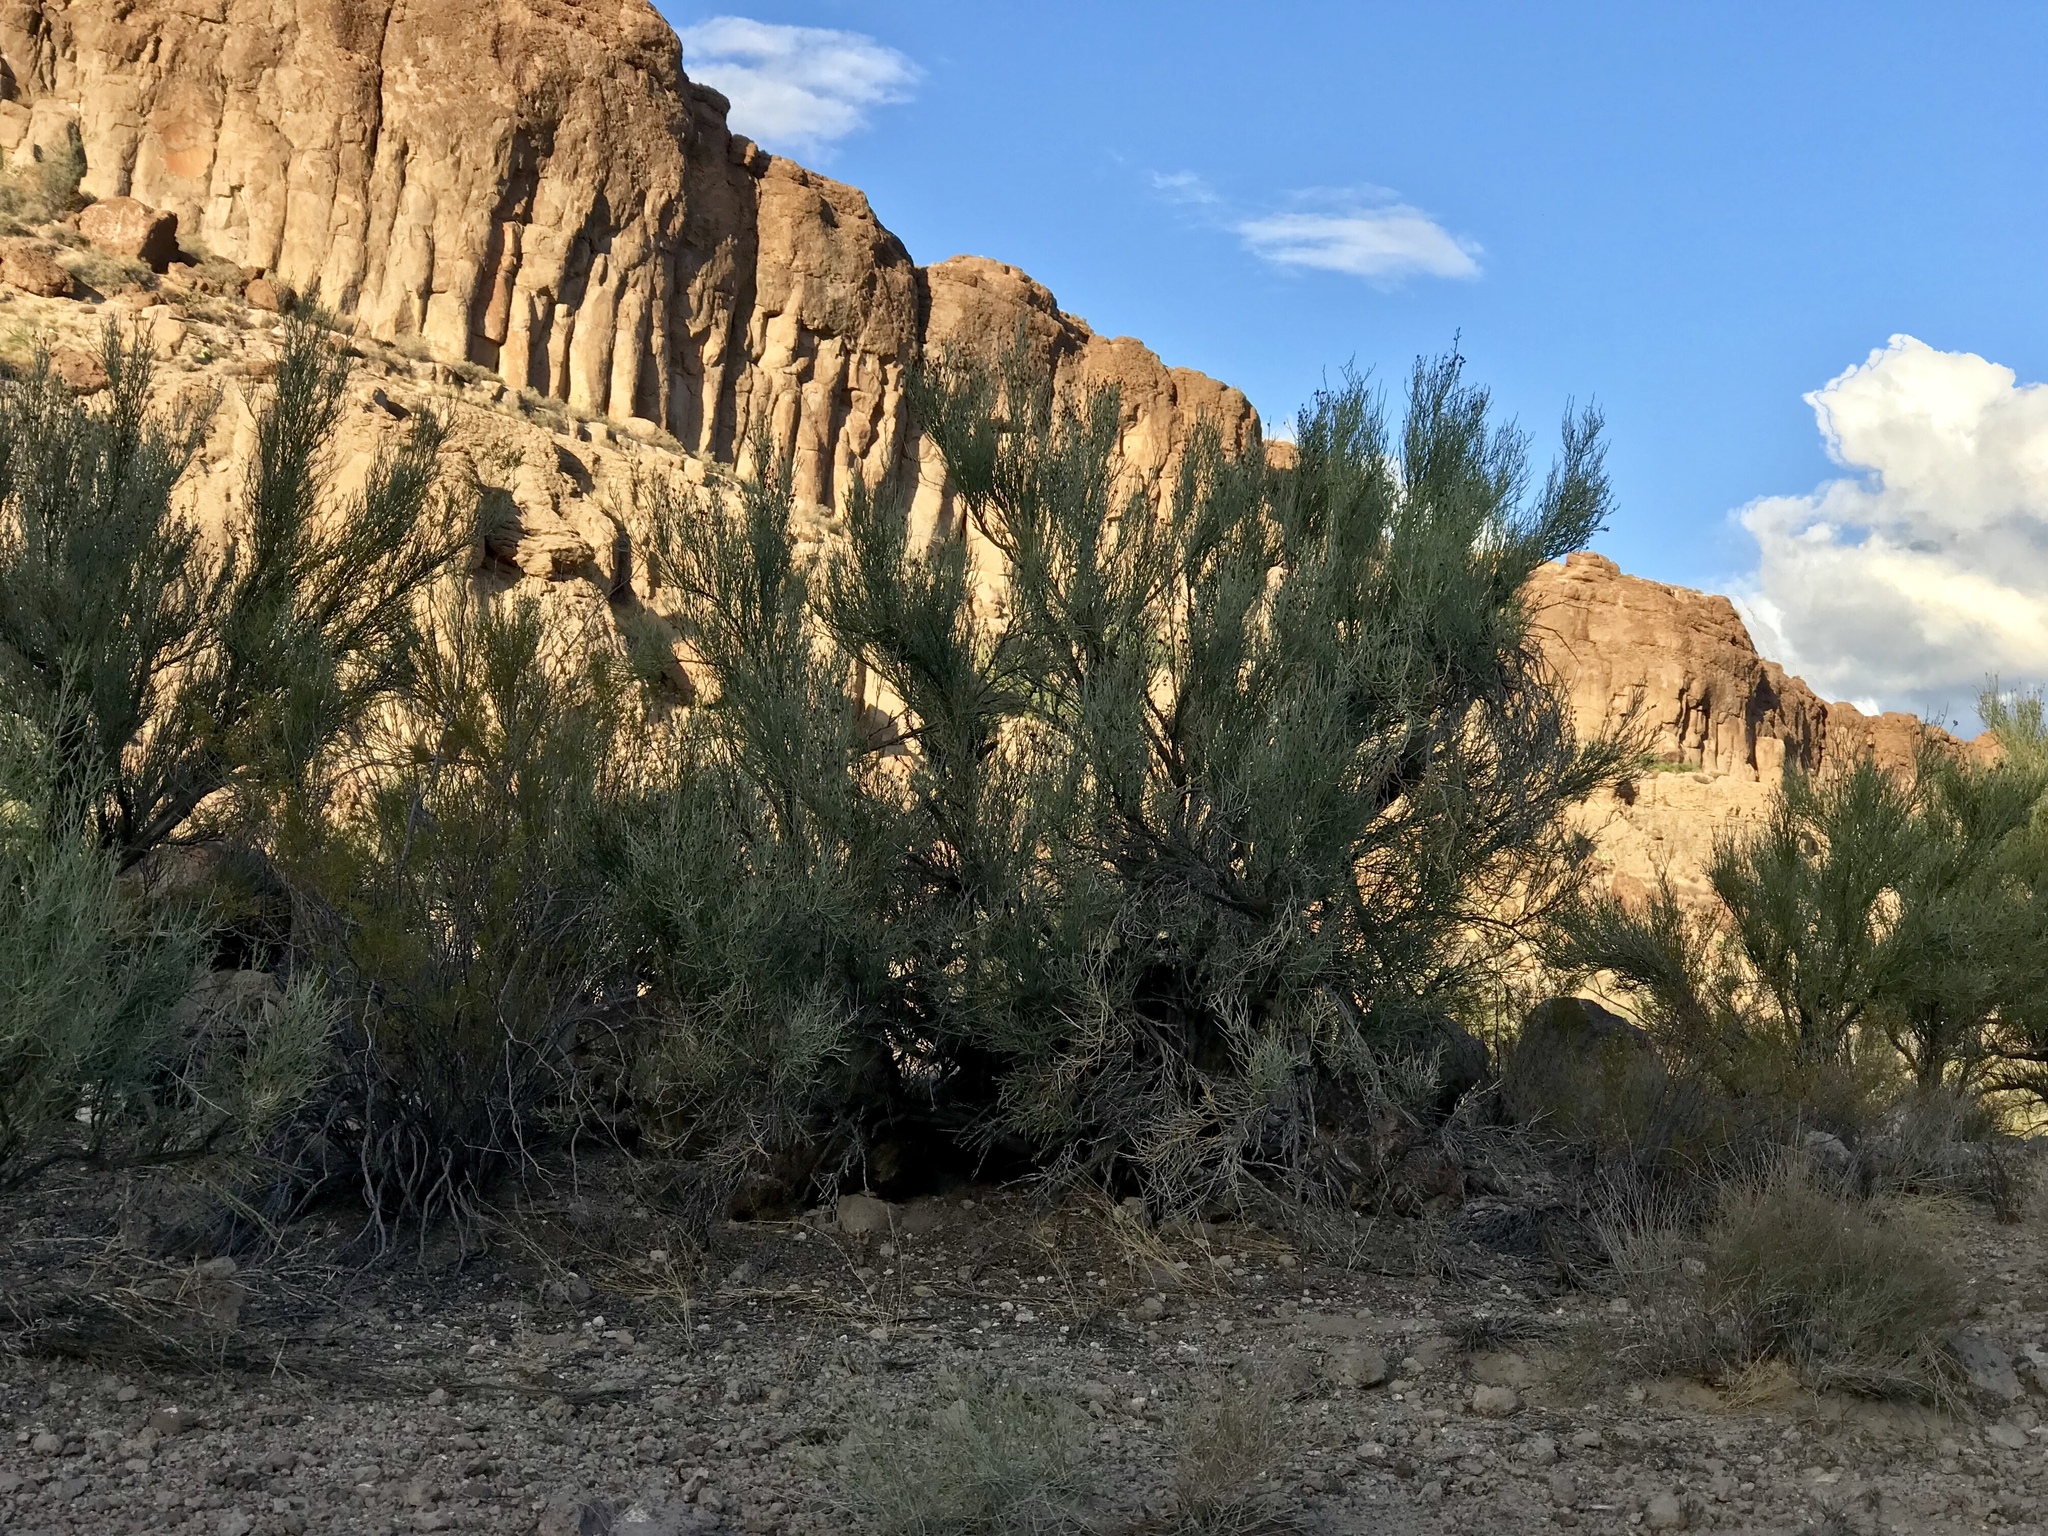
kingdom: Plantae
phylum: Tracheophyta
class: Magnoliopsida
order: Celastrales
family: Celastraceae
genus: Canotia
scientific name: Canotia holacantha
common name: Crucifixion thorns
